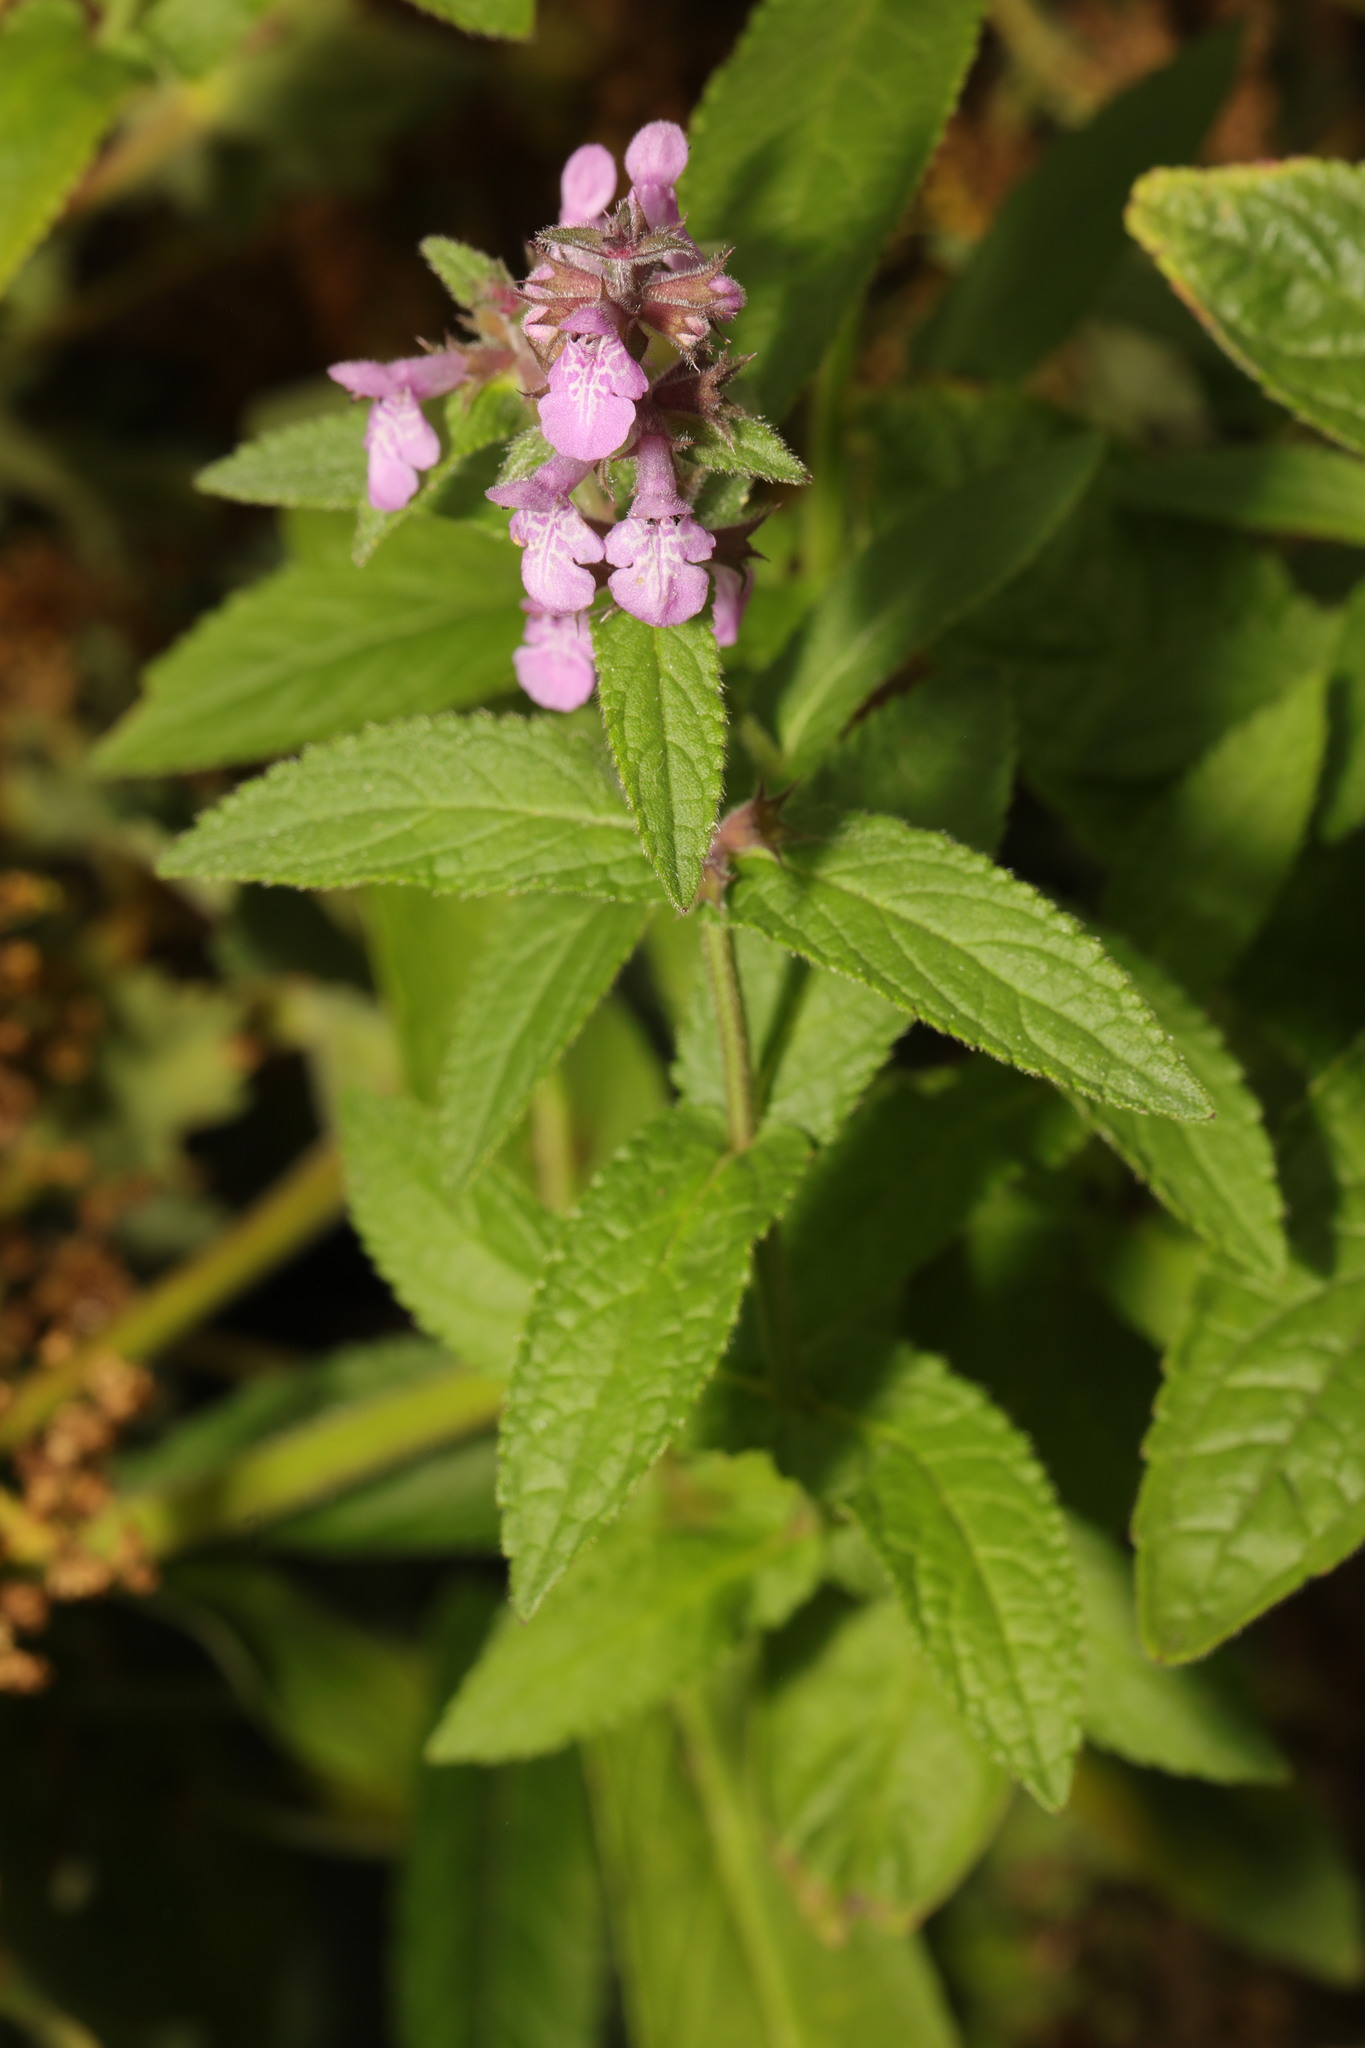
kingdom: Plantae
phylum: Tracheophyta
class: Magnoliopsida
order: Lamiales
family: Lamiaceae
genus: Stachys
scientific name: Stachys palustris
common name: Marsh woundwort
